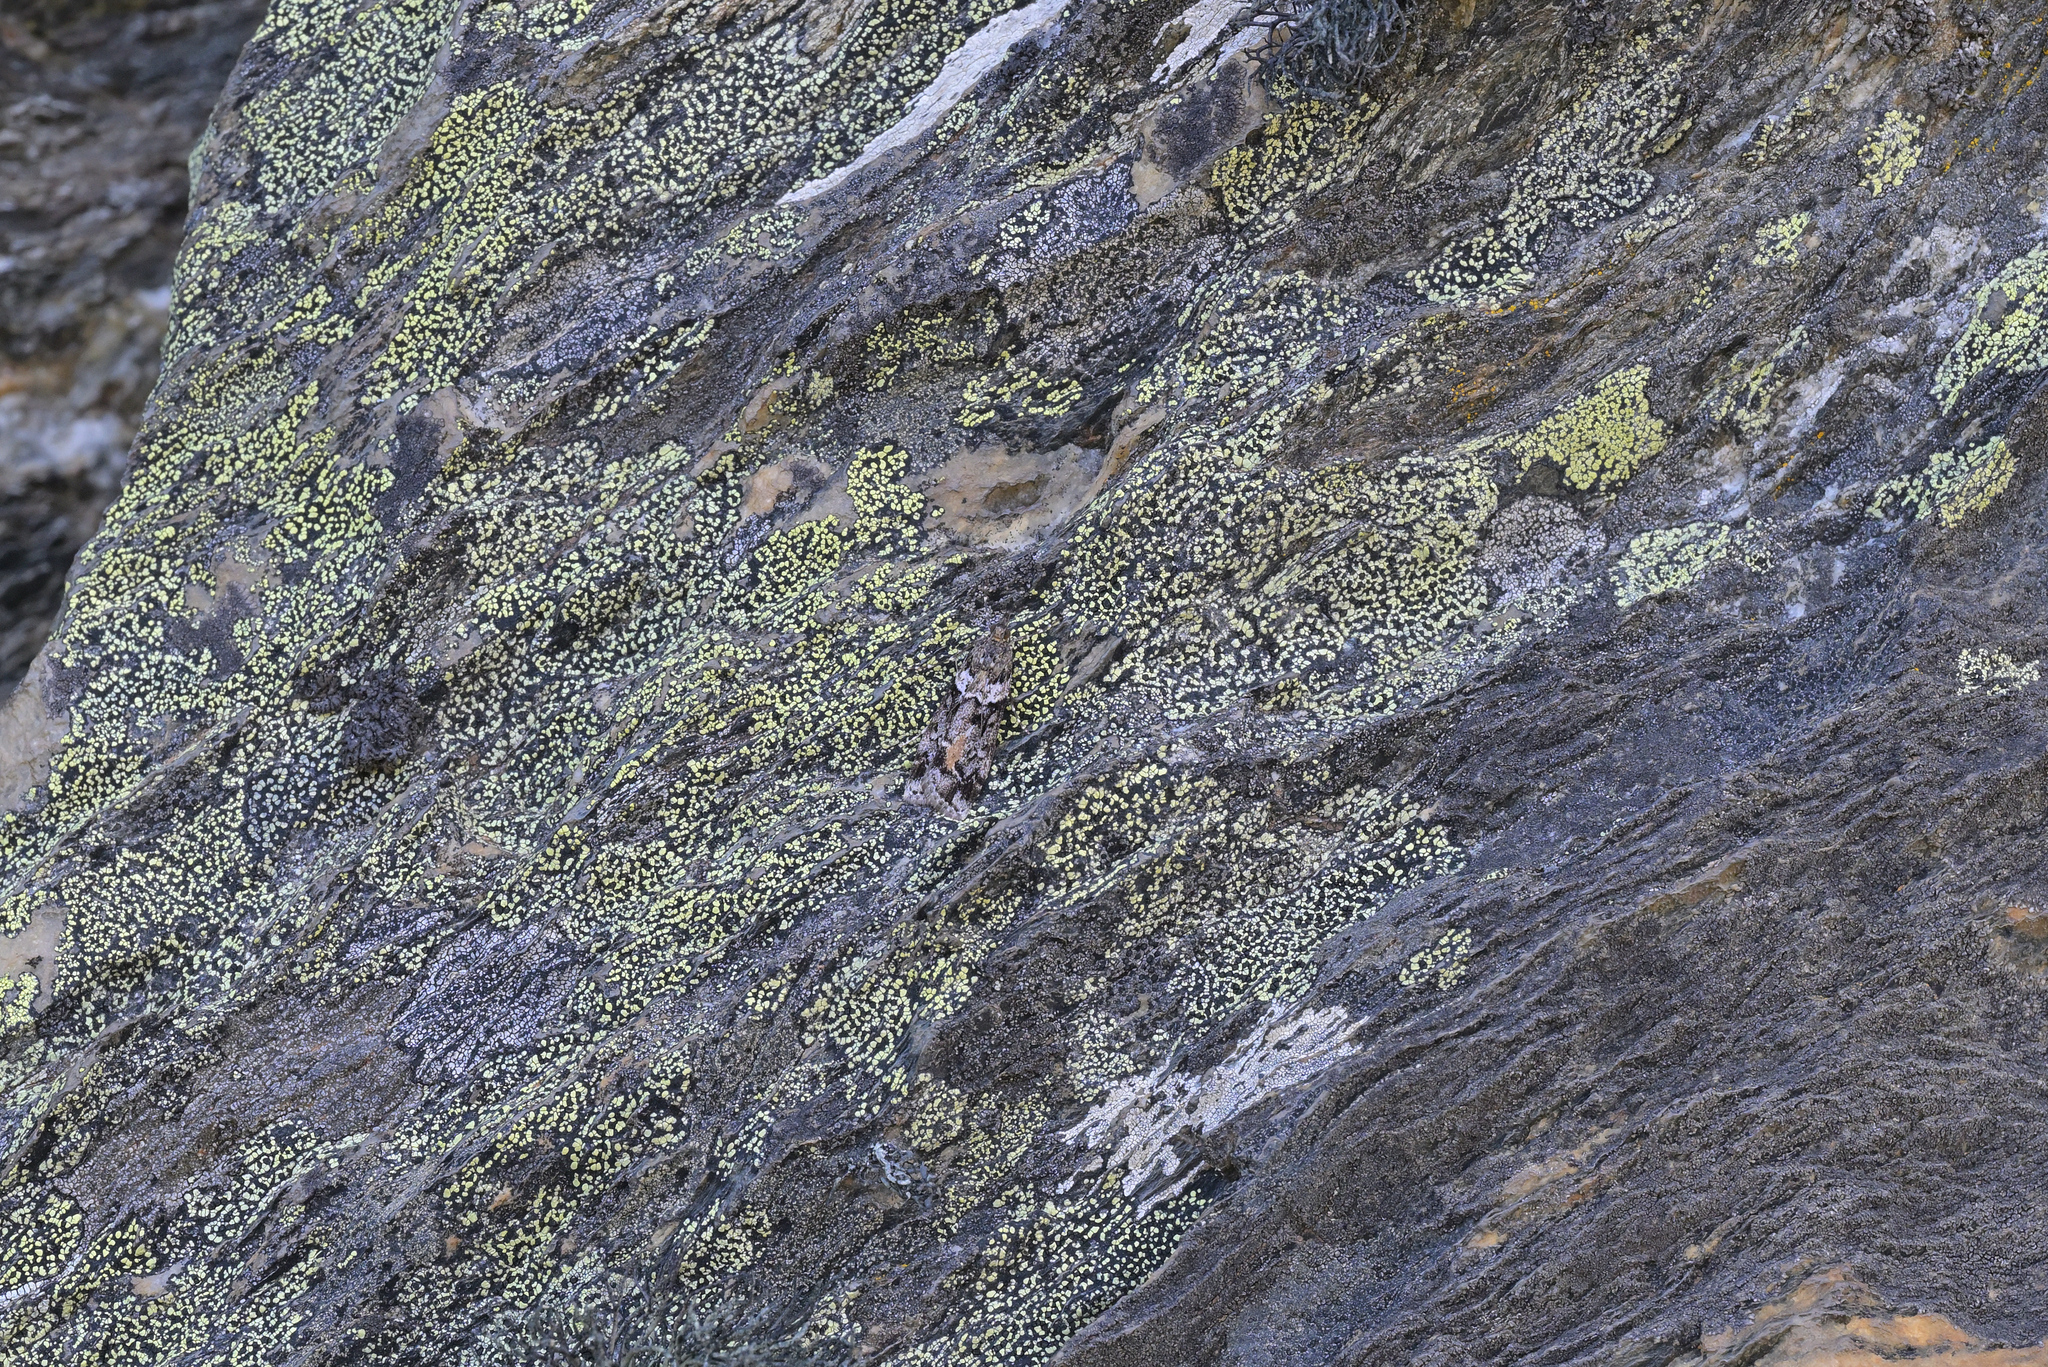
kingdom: Animalia
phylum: Arthropoda
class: Insecta
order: Lepidoptera
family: Crambidae
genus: Eudonia
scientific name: Eudonia submarginalis
